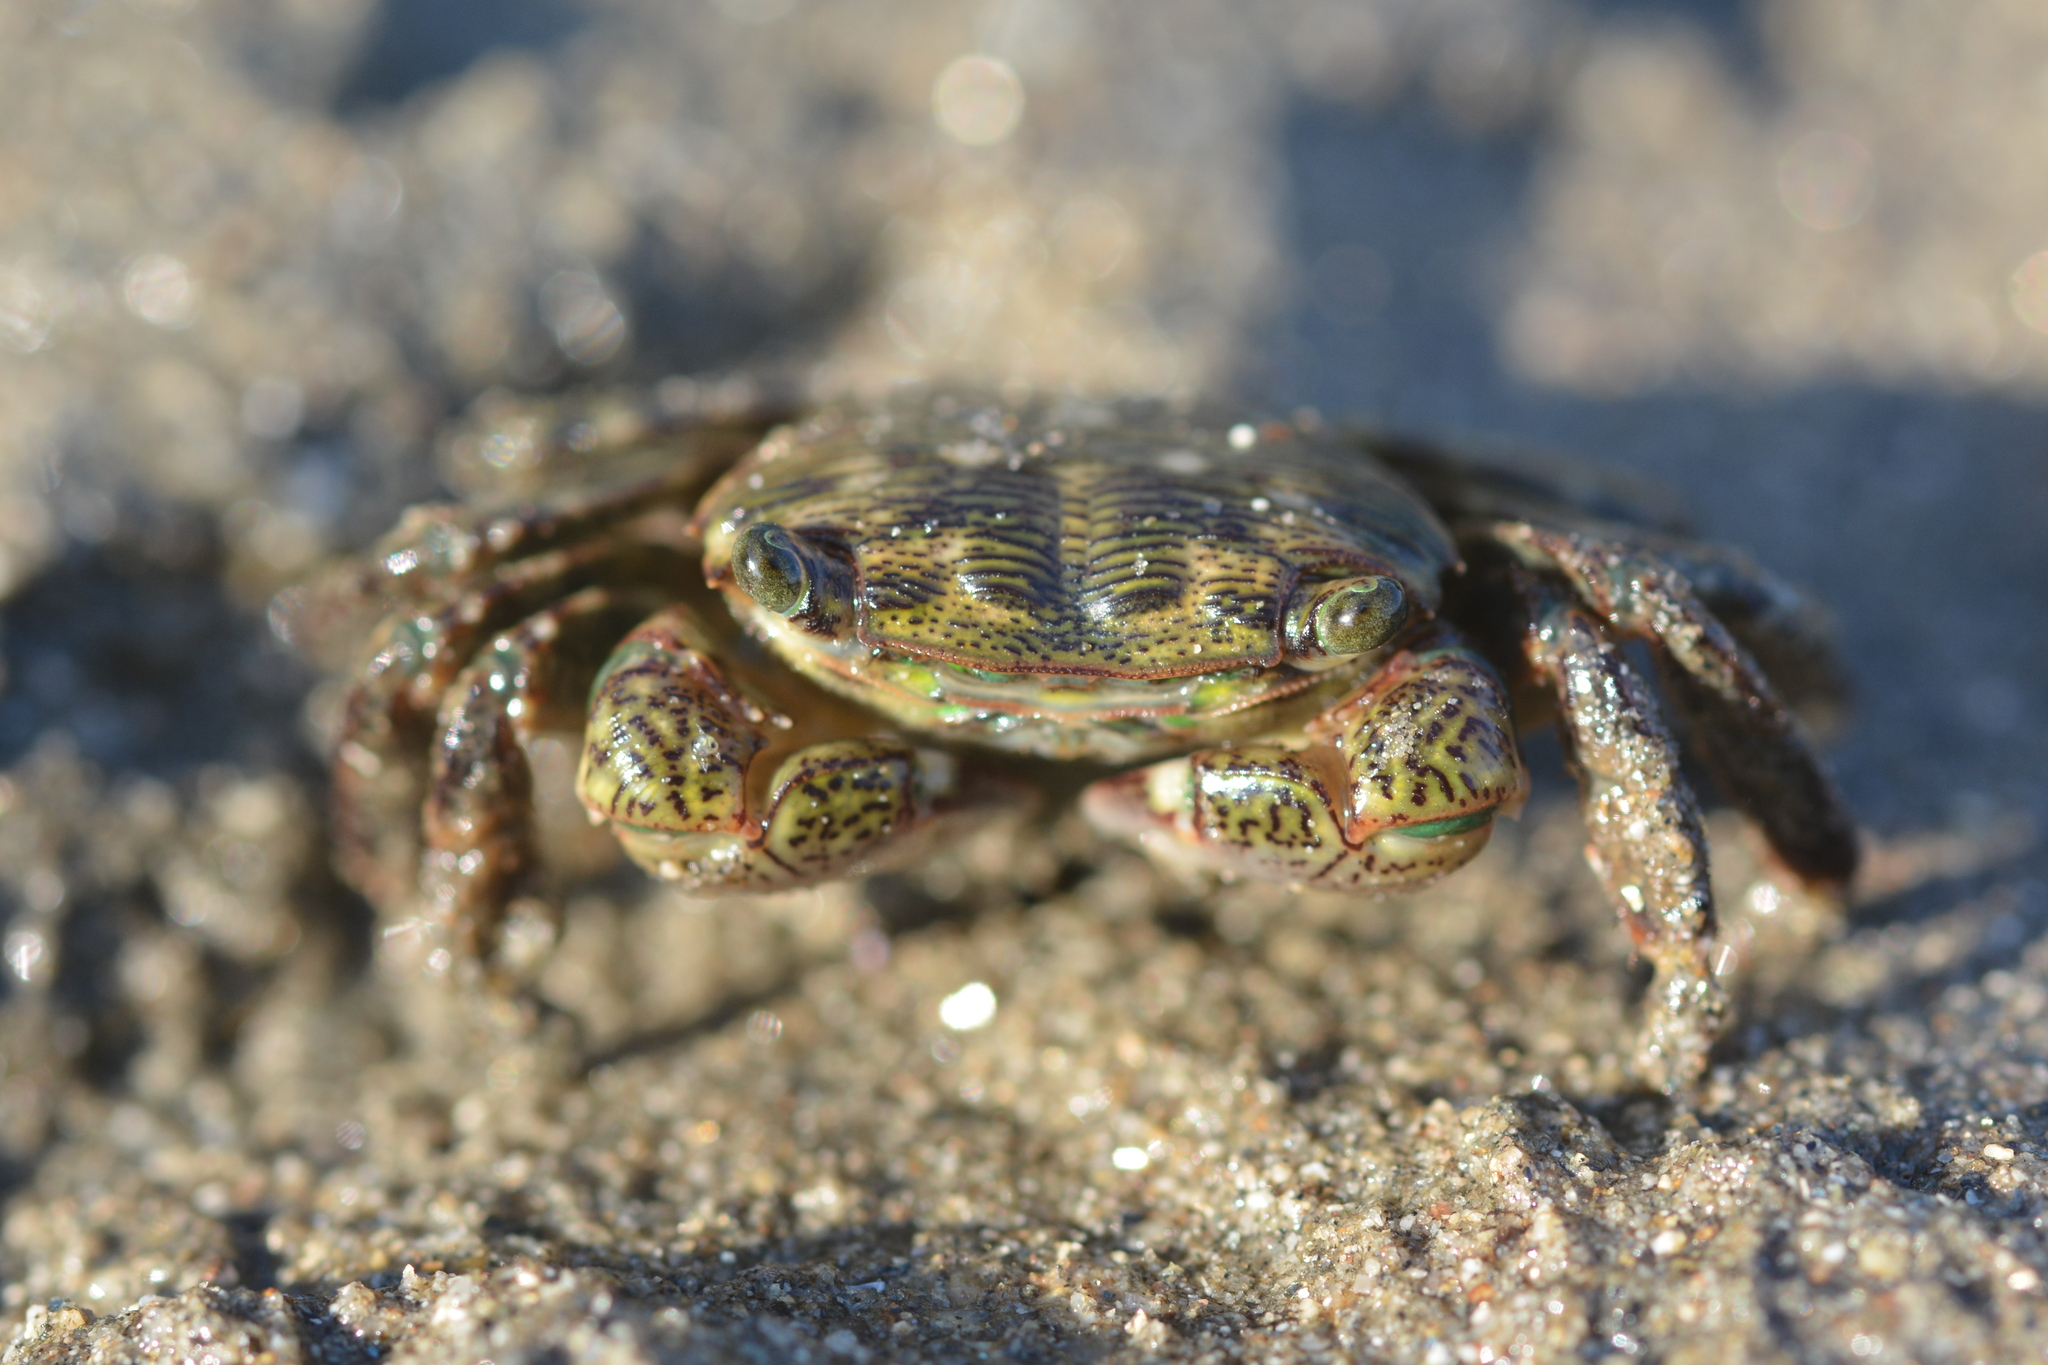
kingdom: Animalia
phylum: Arthropoda
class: Malacostraca
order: Decapoda
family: Grapsidae
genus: Pachygrapsus
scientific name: Pachygrapsus crassipes
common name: Striped shore crab
